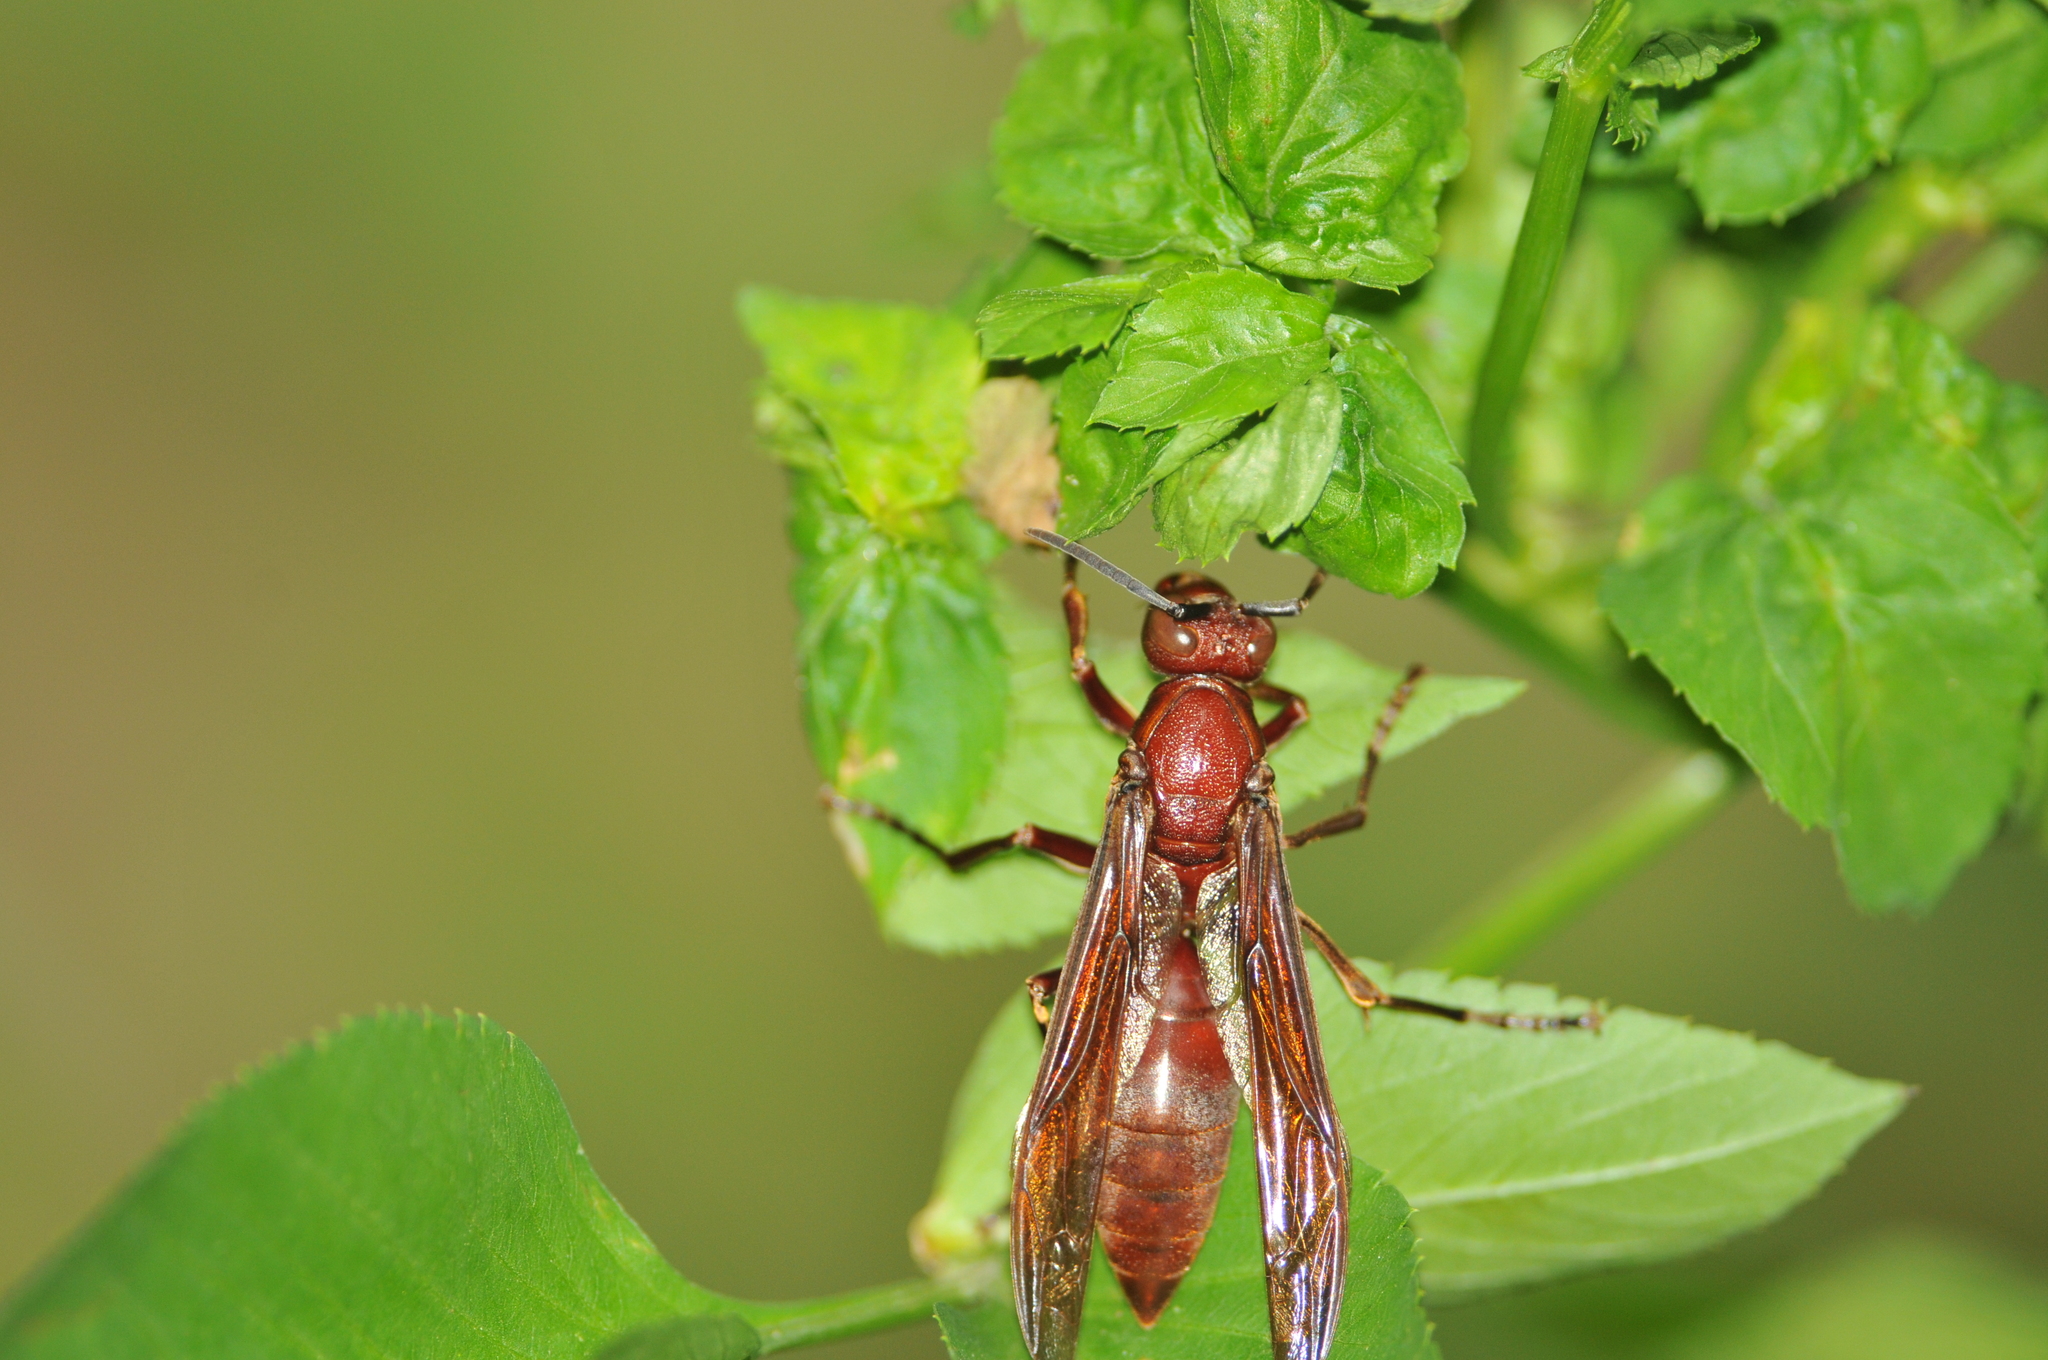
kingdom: Animalia
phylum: Arthropoda
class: Insecta
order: Hymenoptera
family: Eumenidae
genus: Polistes
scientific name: Polistes gigas
